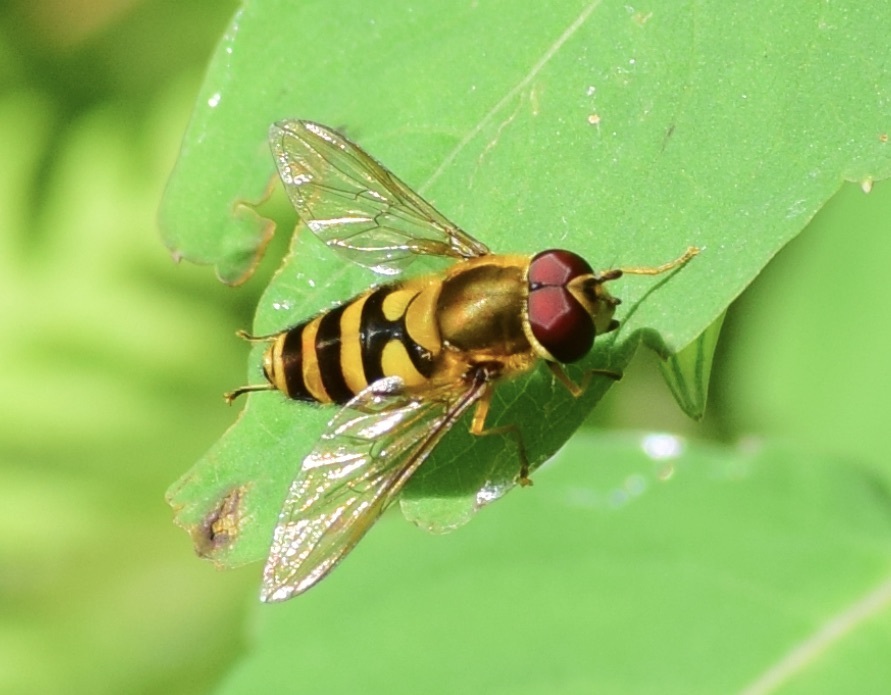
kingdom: Animalia
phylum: Arthropoda
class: Insecta
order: Diptera
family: Syrphidae
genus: Syrphus
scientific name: Syrphus
